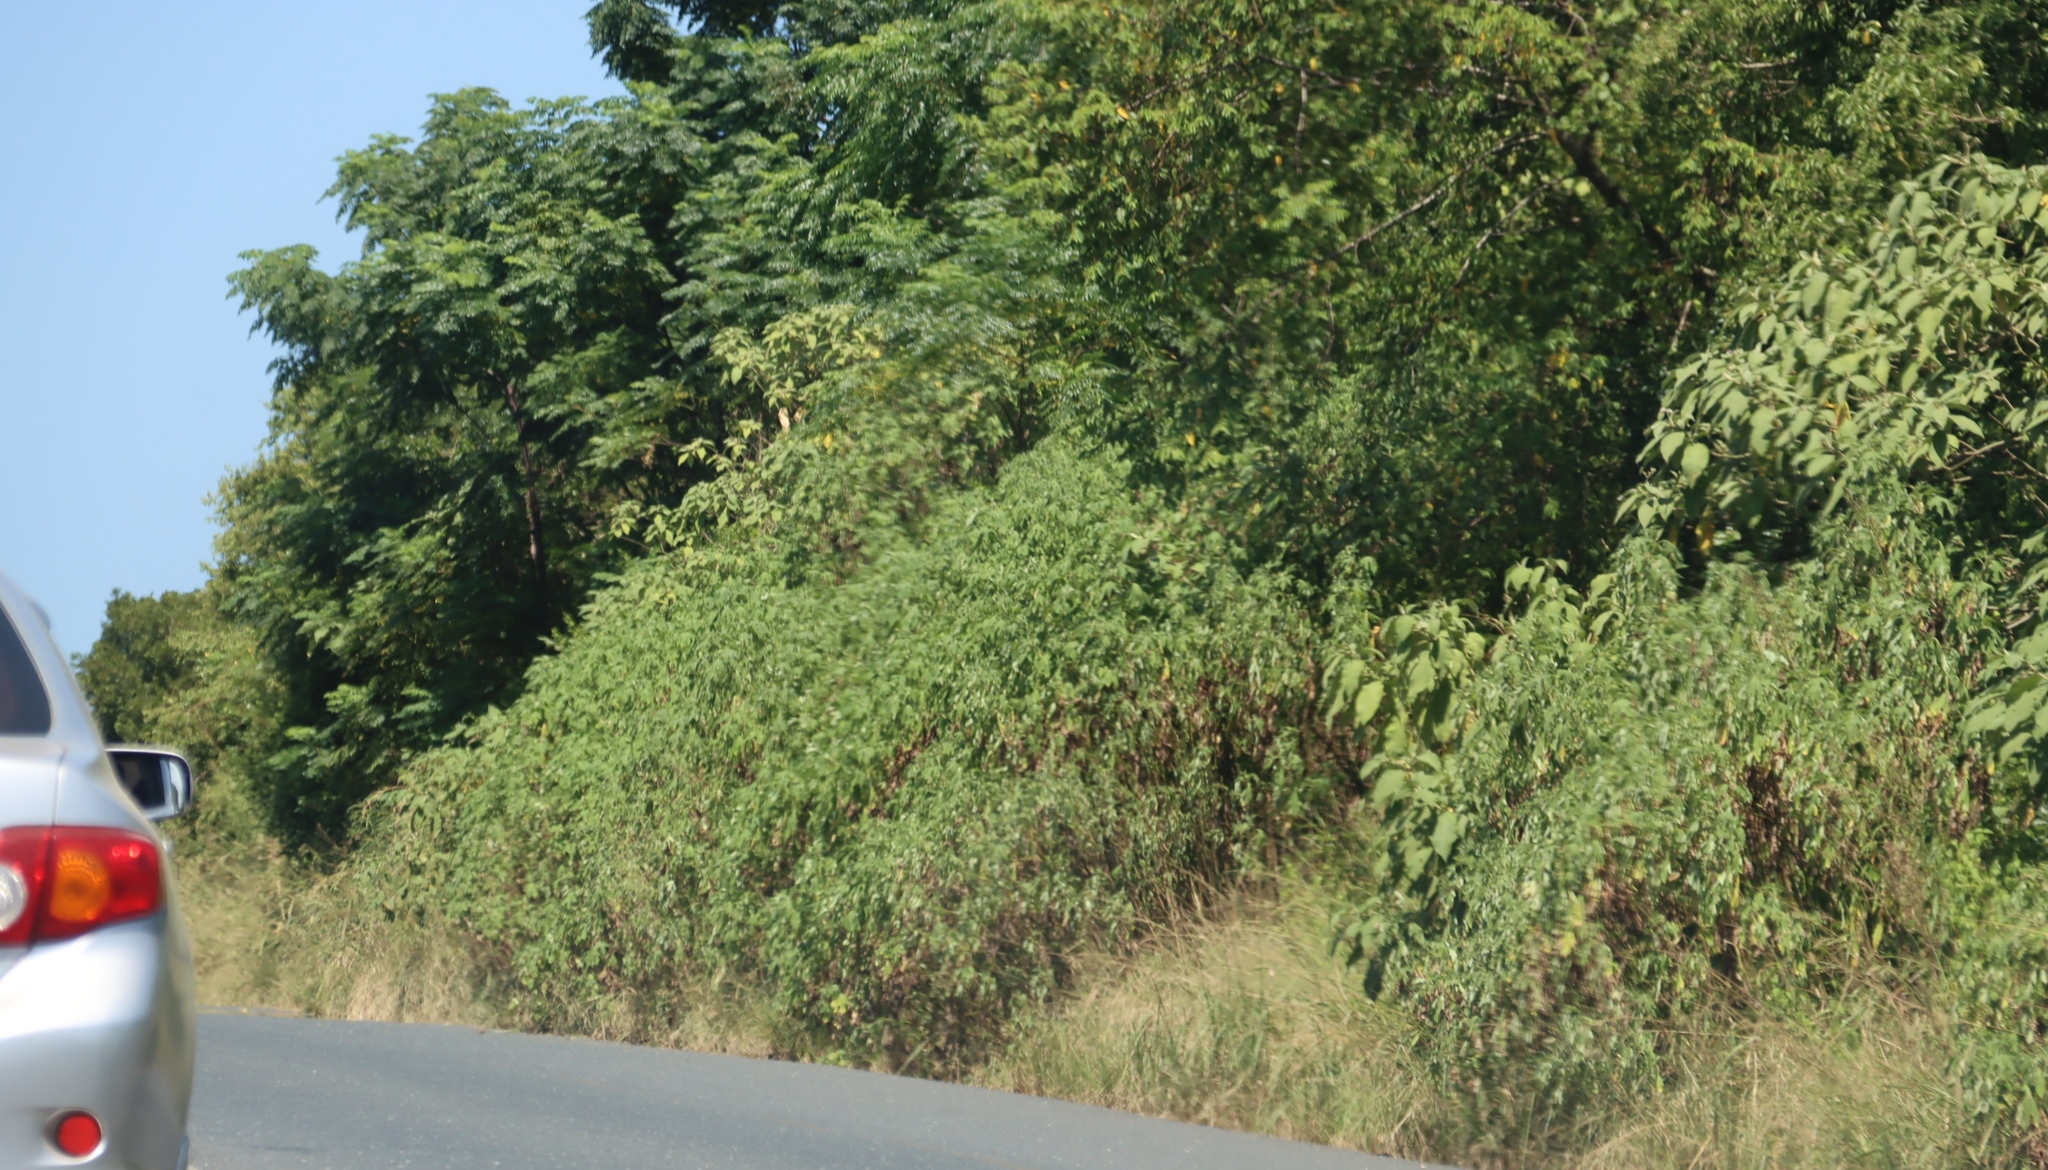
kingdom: Plantae
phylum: Tracheophyta
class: Magnoliopsida
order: Asterales
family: Asteraceae
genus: Tithonia
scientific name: Tithonia diversifolia
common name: Tree marigold
